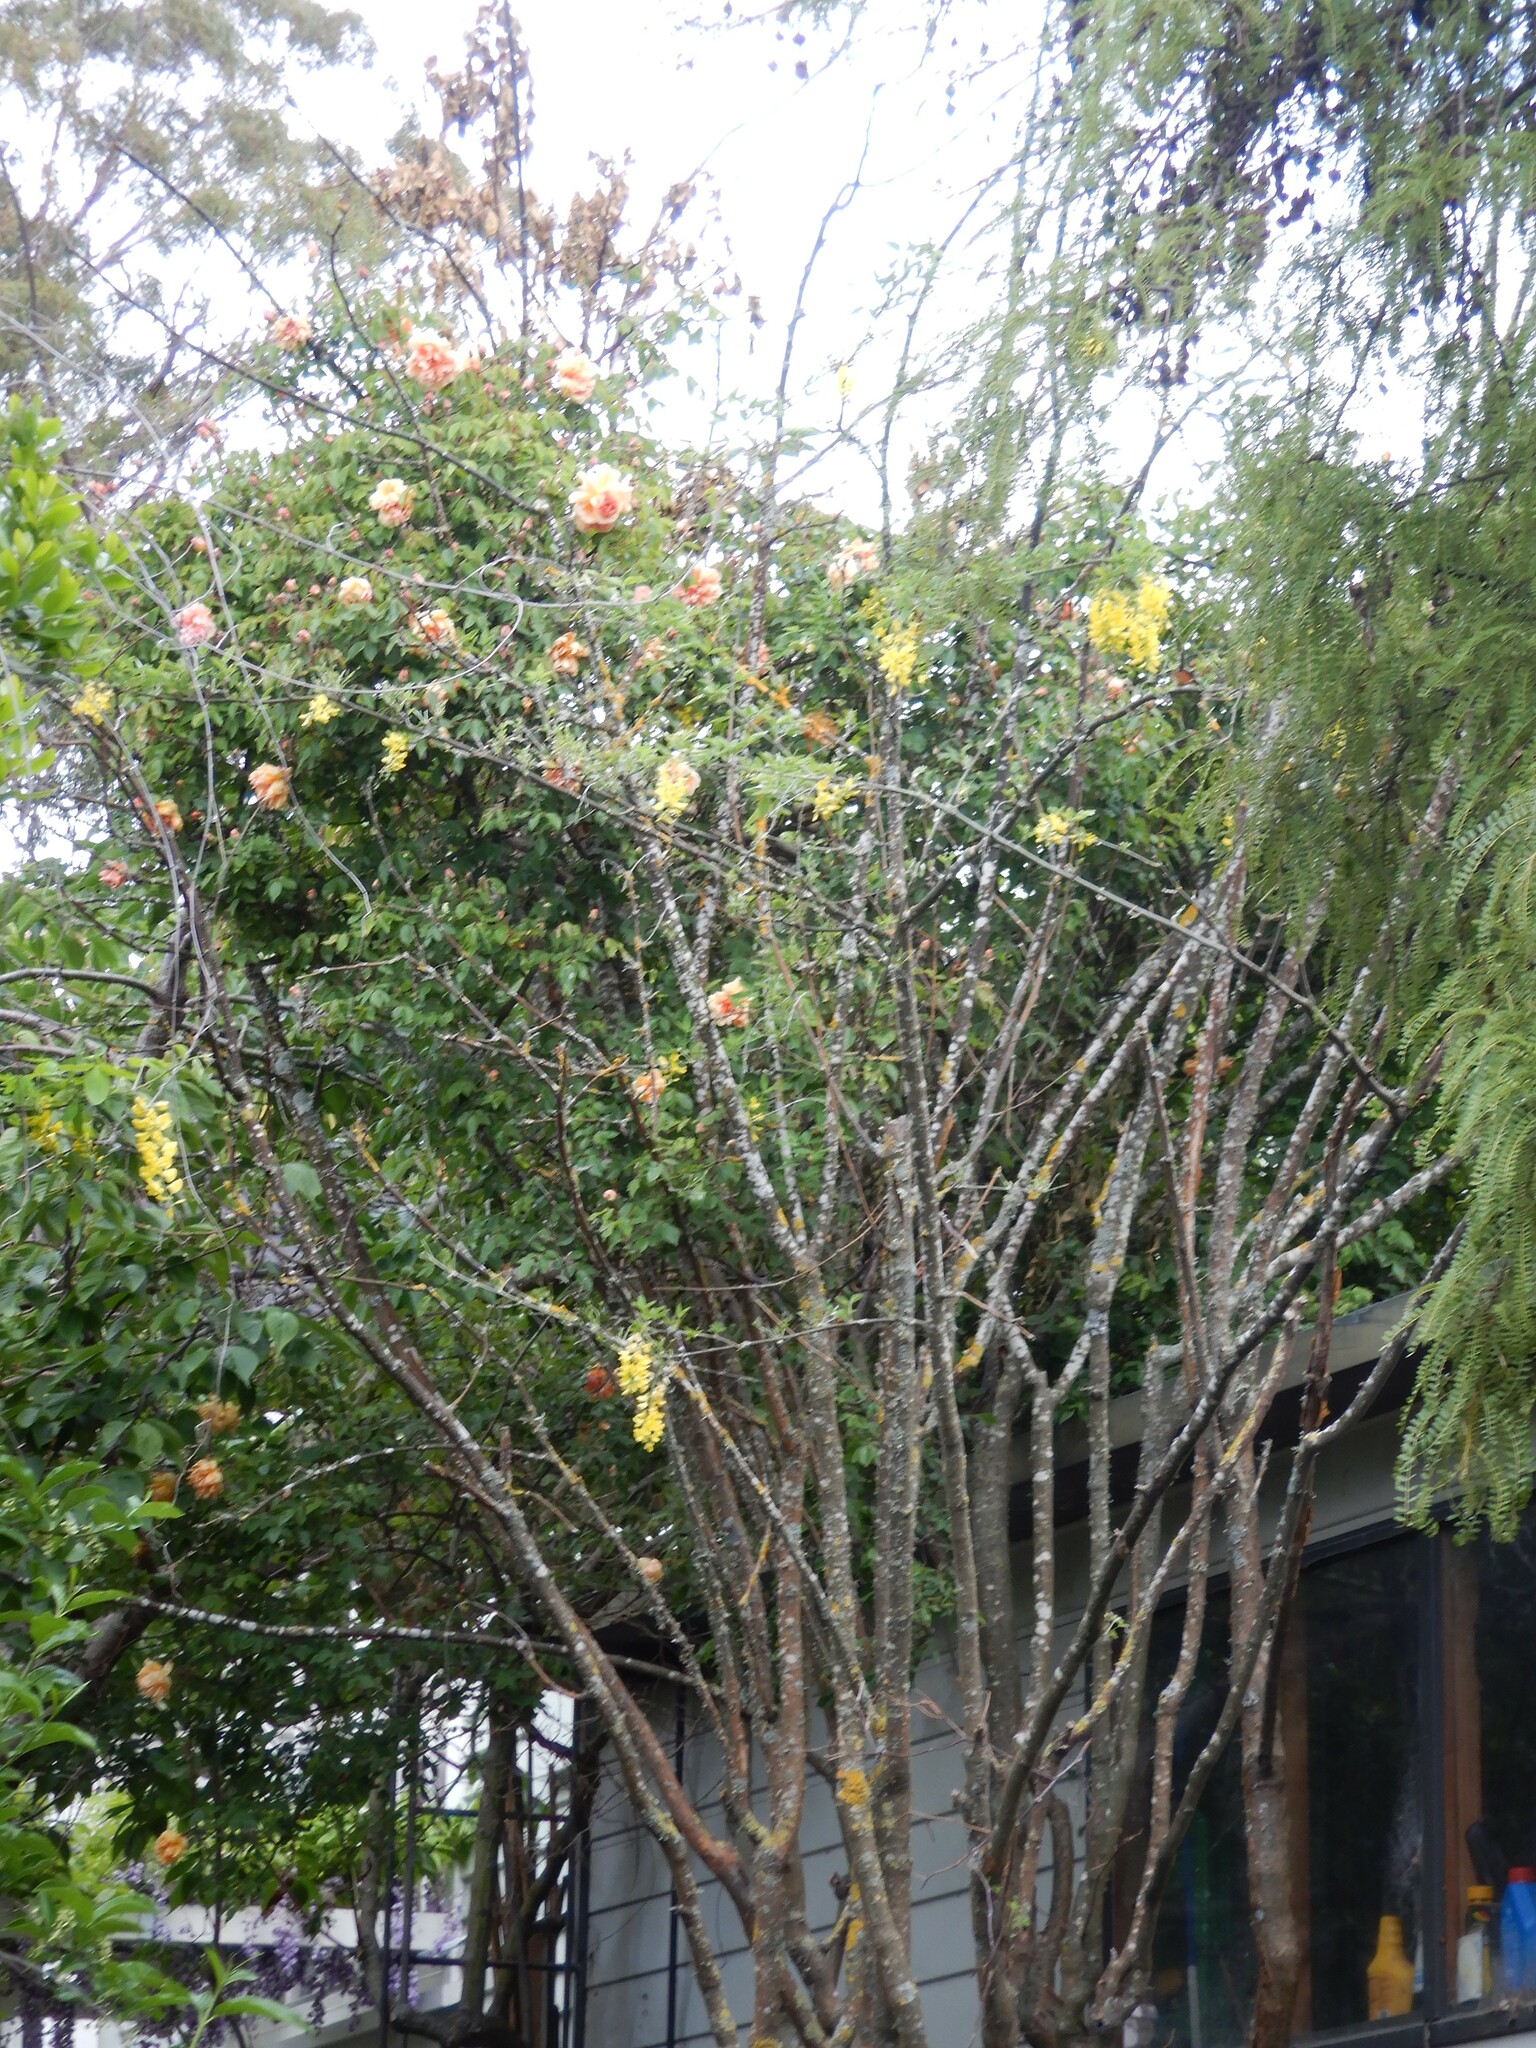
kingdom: Plantae
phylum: Tracheophyta
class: Magnoliopsida
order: Fabales
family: Fabaceae
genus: Laburnum
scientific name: Laburnum anagyroides
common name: Laburnum
